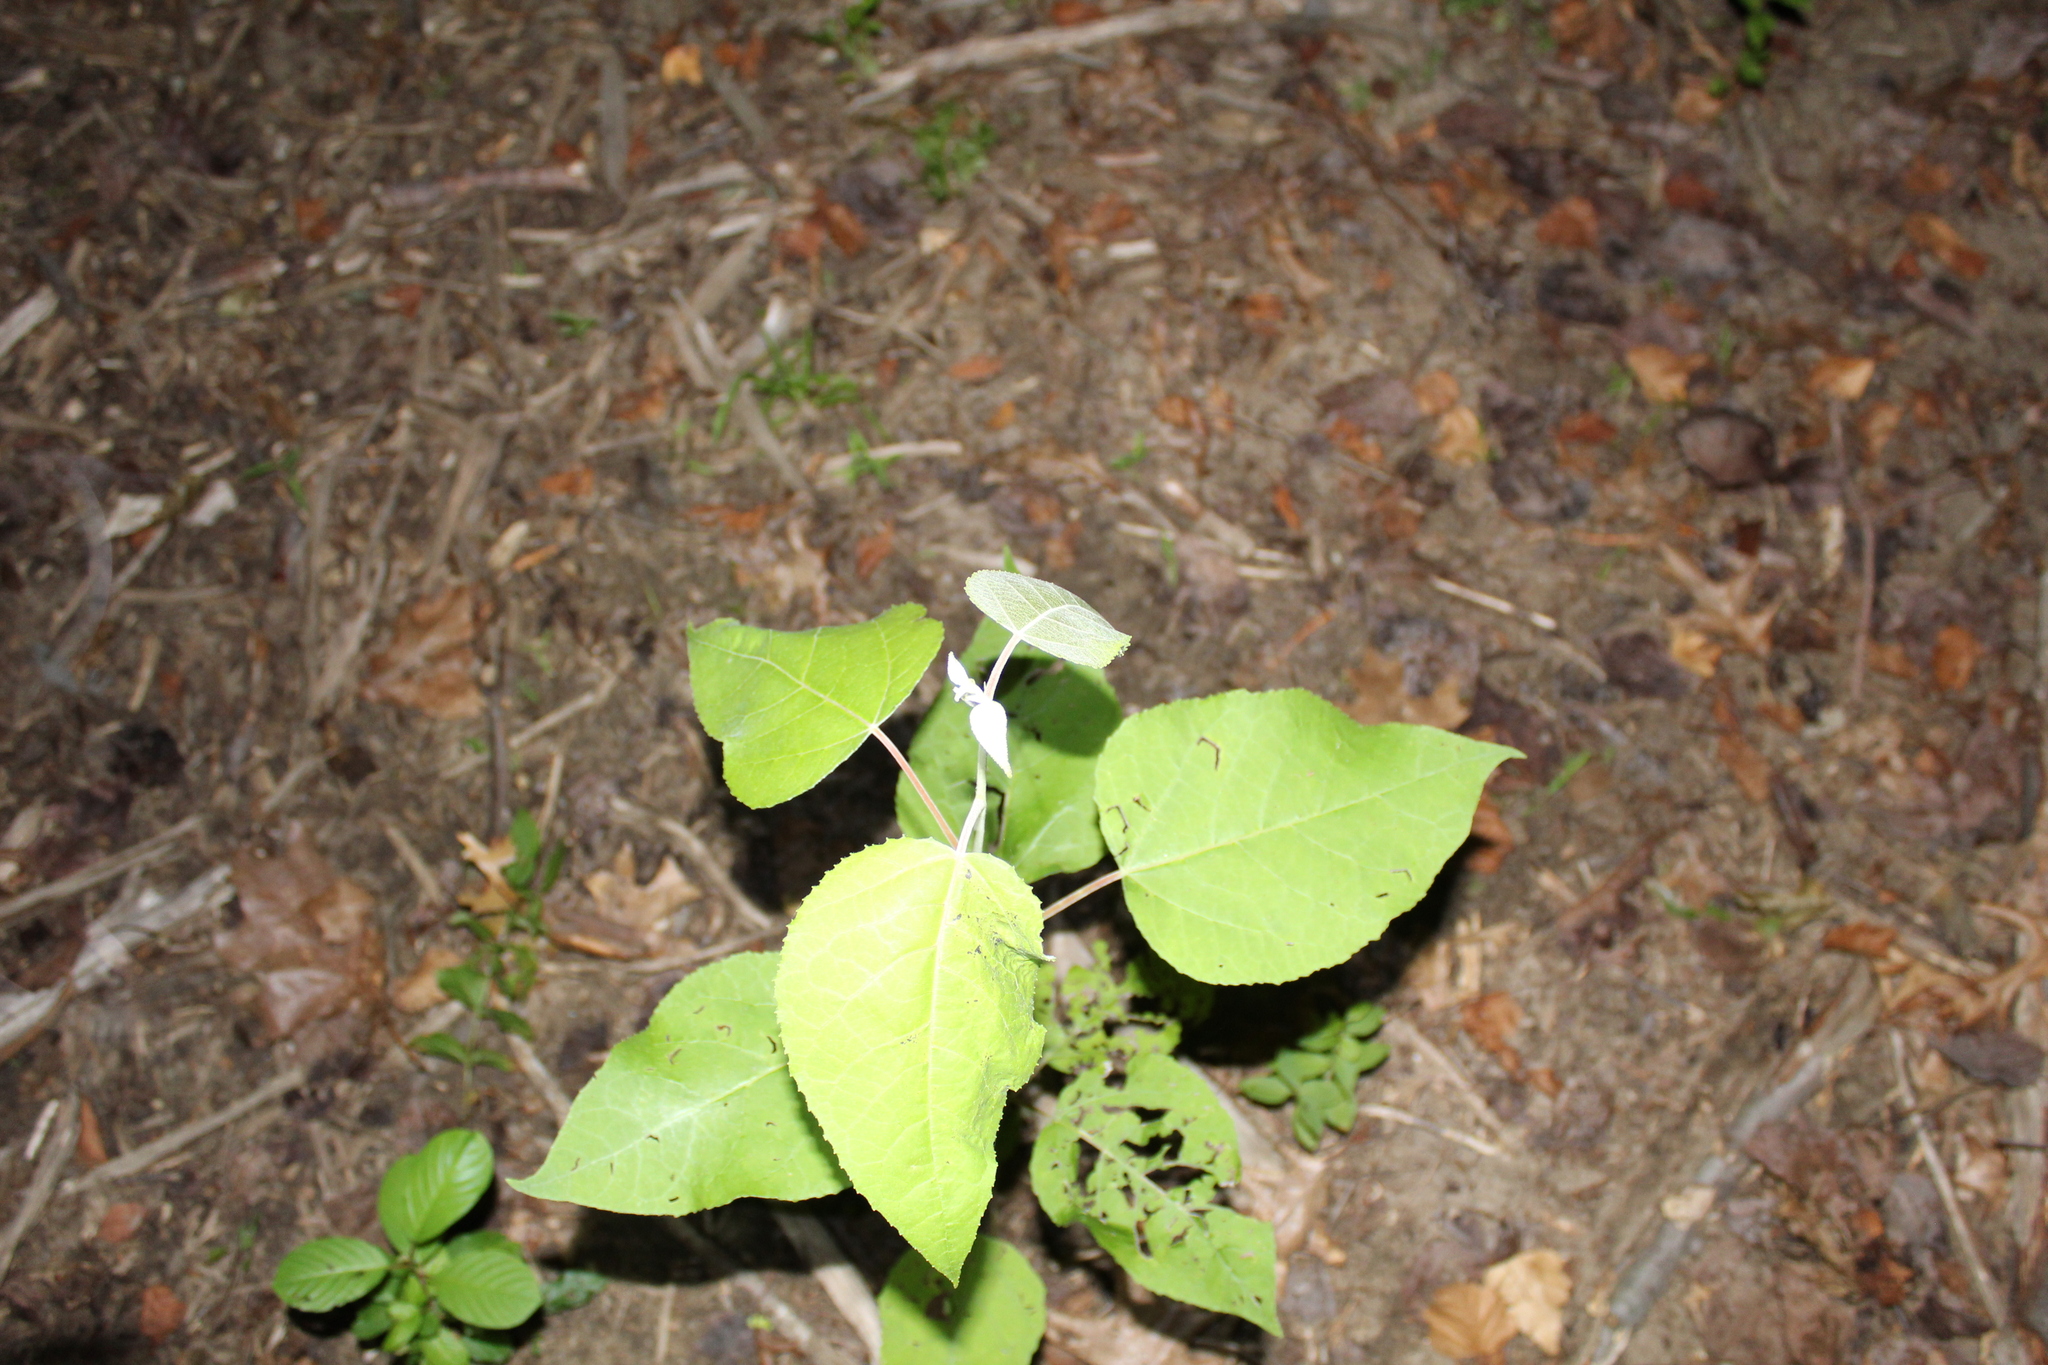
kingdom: Plantae
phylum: Tracheophyta
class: Magnoliopsida
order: Malpighiales
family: Salicaceae
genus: Populus
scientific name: Populus tremuloides
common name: Quaking aspen
